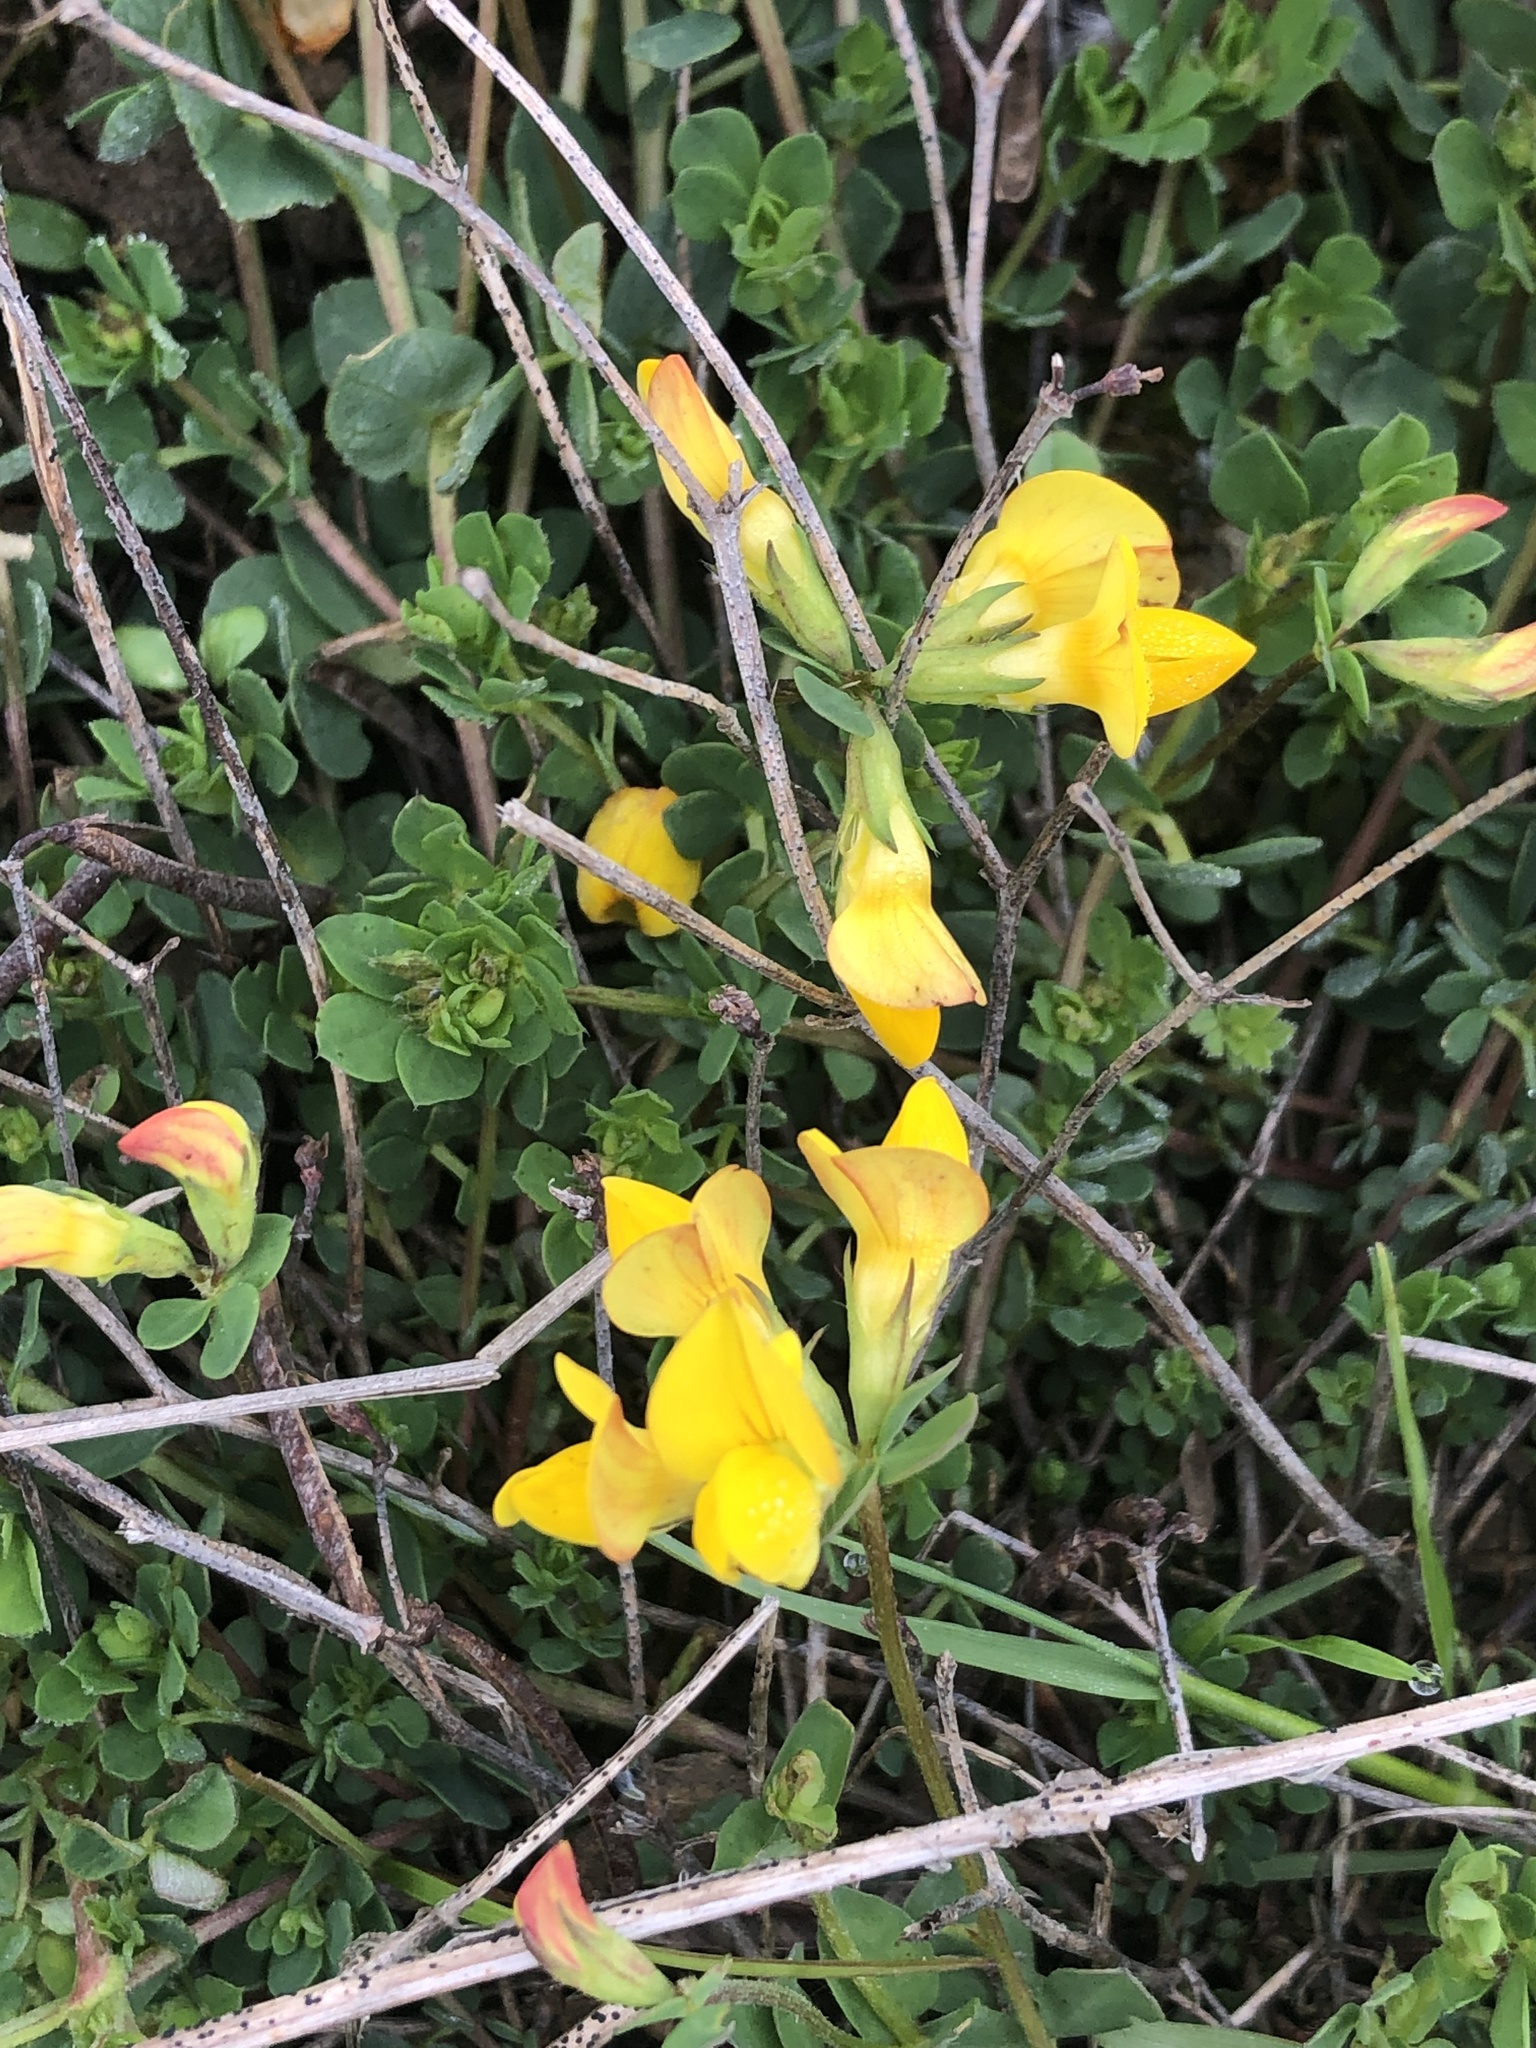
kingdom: Plantae
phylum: Tracheophyta
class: Magnoliopsida
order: Fabales
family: Fabaceae
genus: Lotus
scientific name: Lotus corniculatus
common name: Common bird's-foot-trefoil
